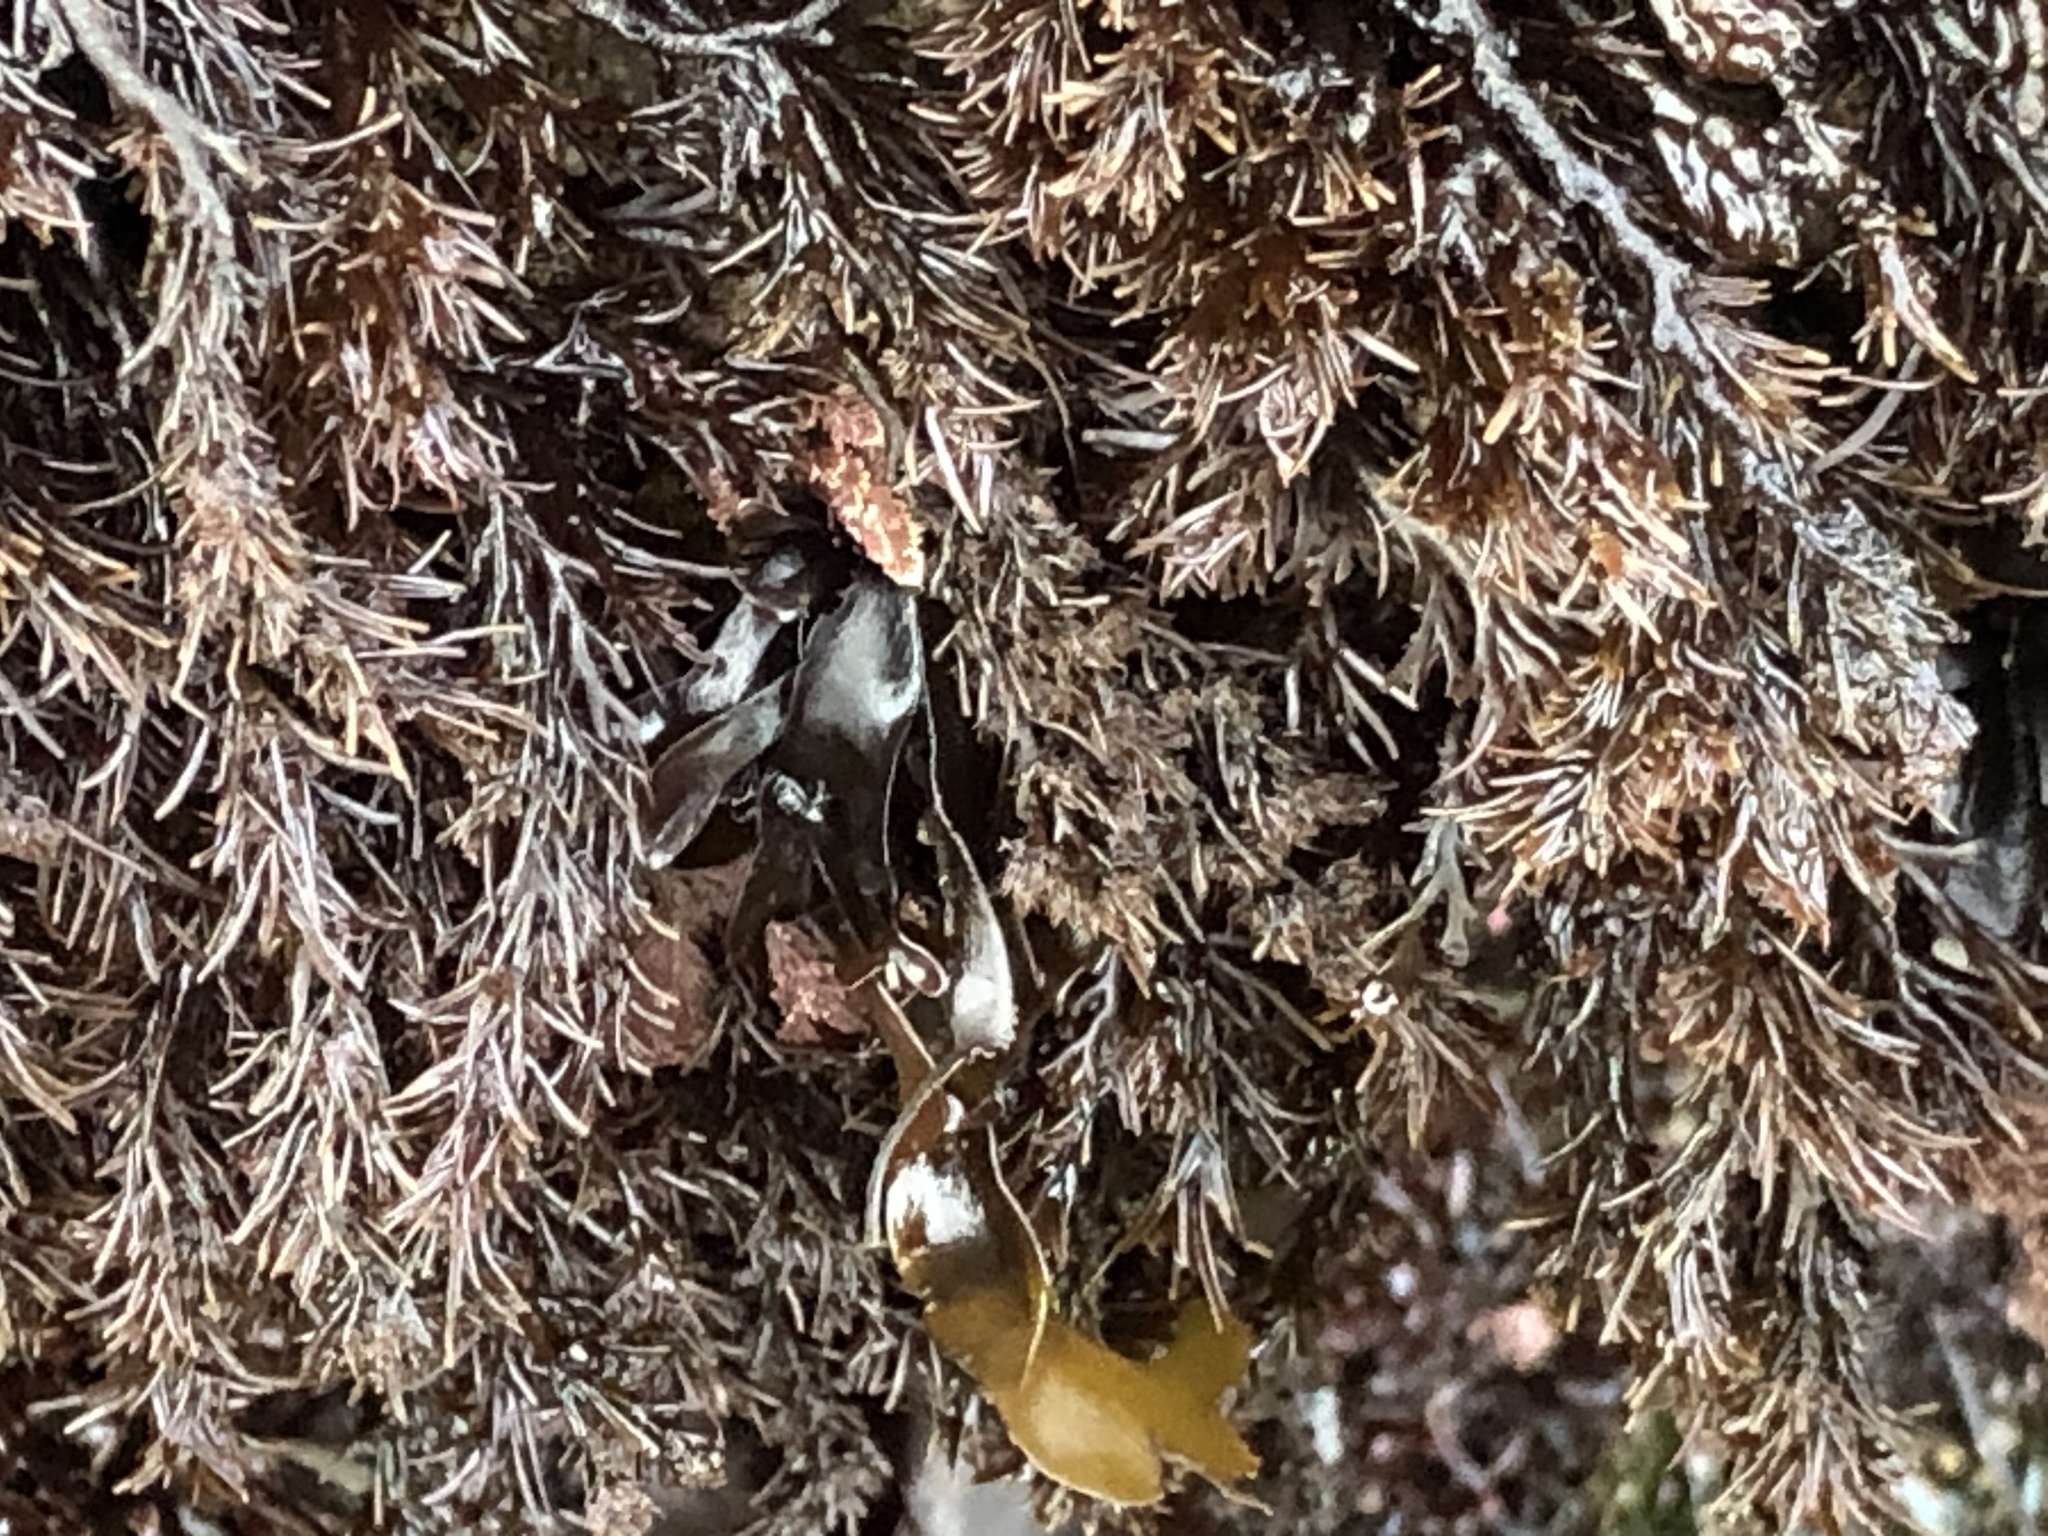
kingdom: Plantae
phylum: Rhodophyta
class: Florideophyceae
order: Ceramiales
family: Rhodomelaceae
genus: Neorhodomela
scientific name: Neorhodomela larix
